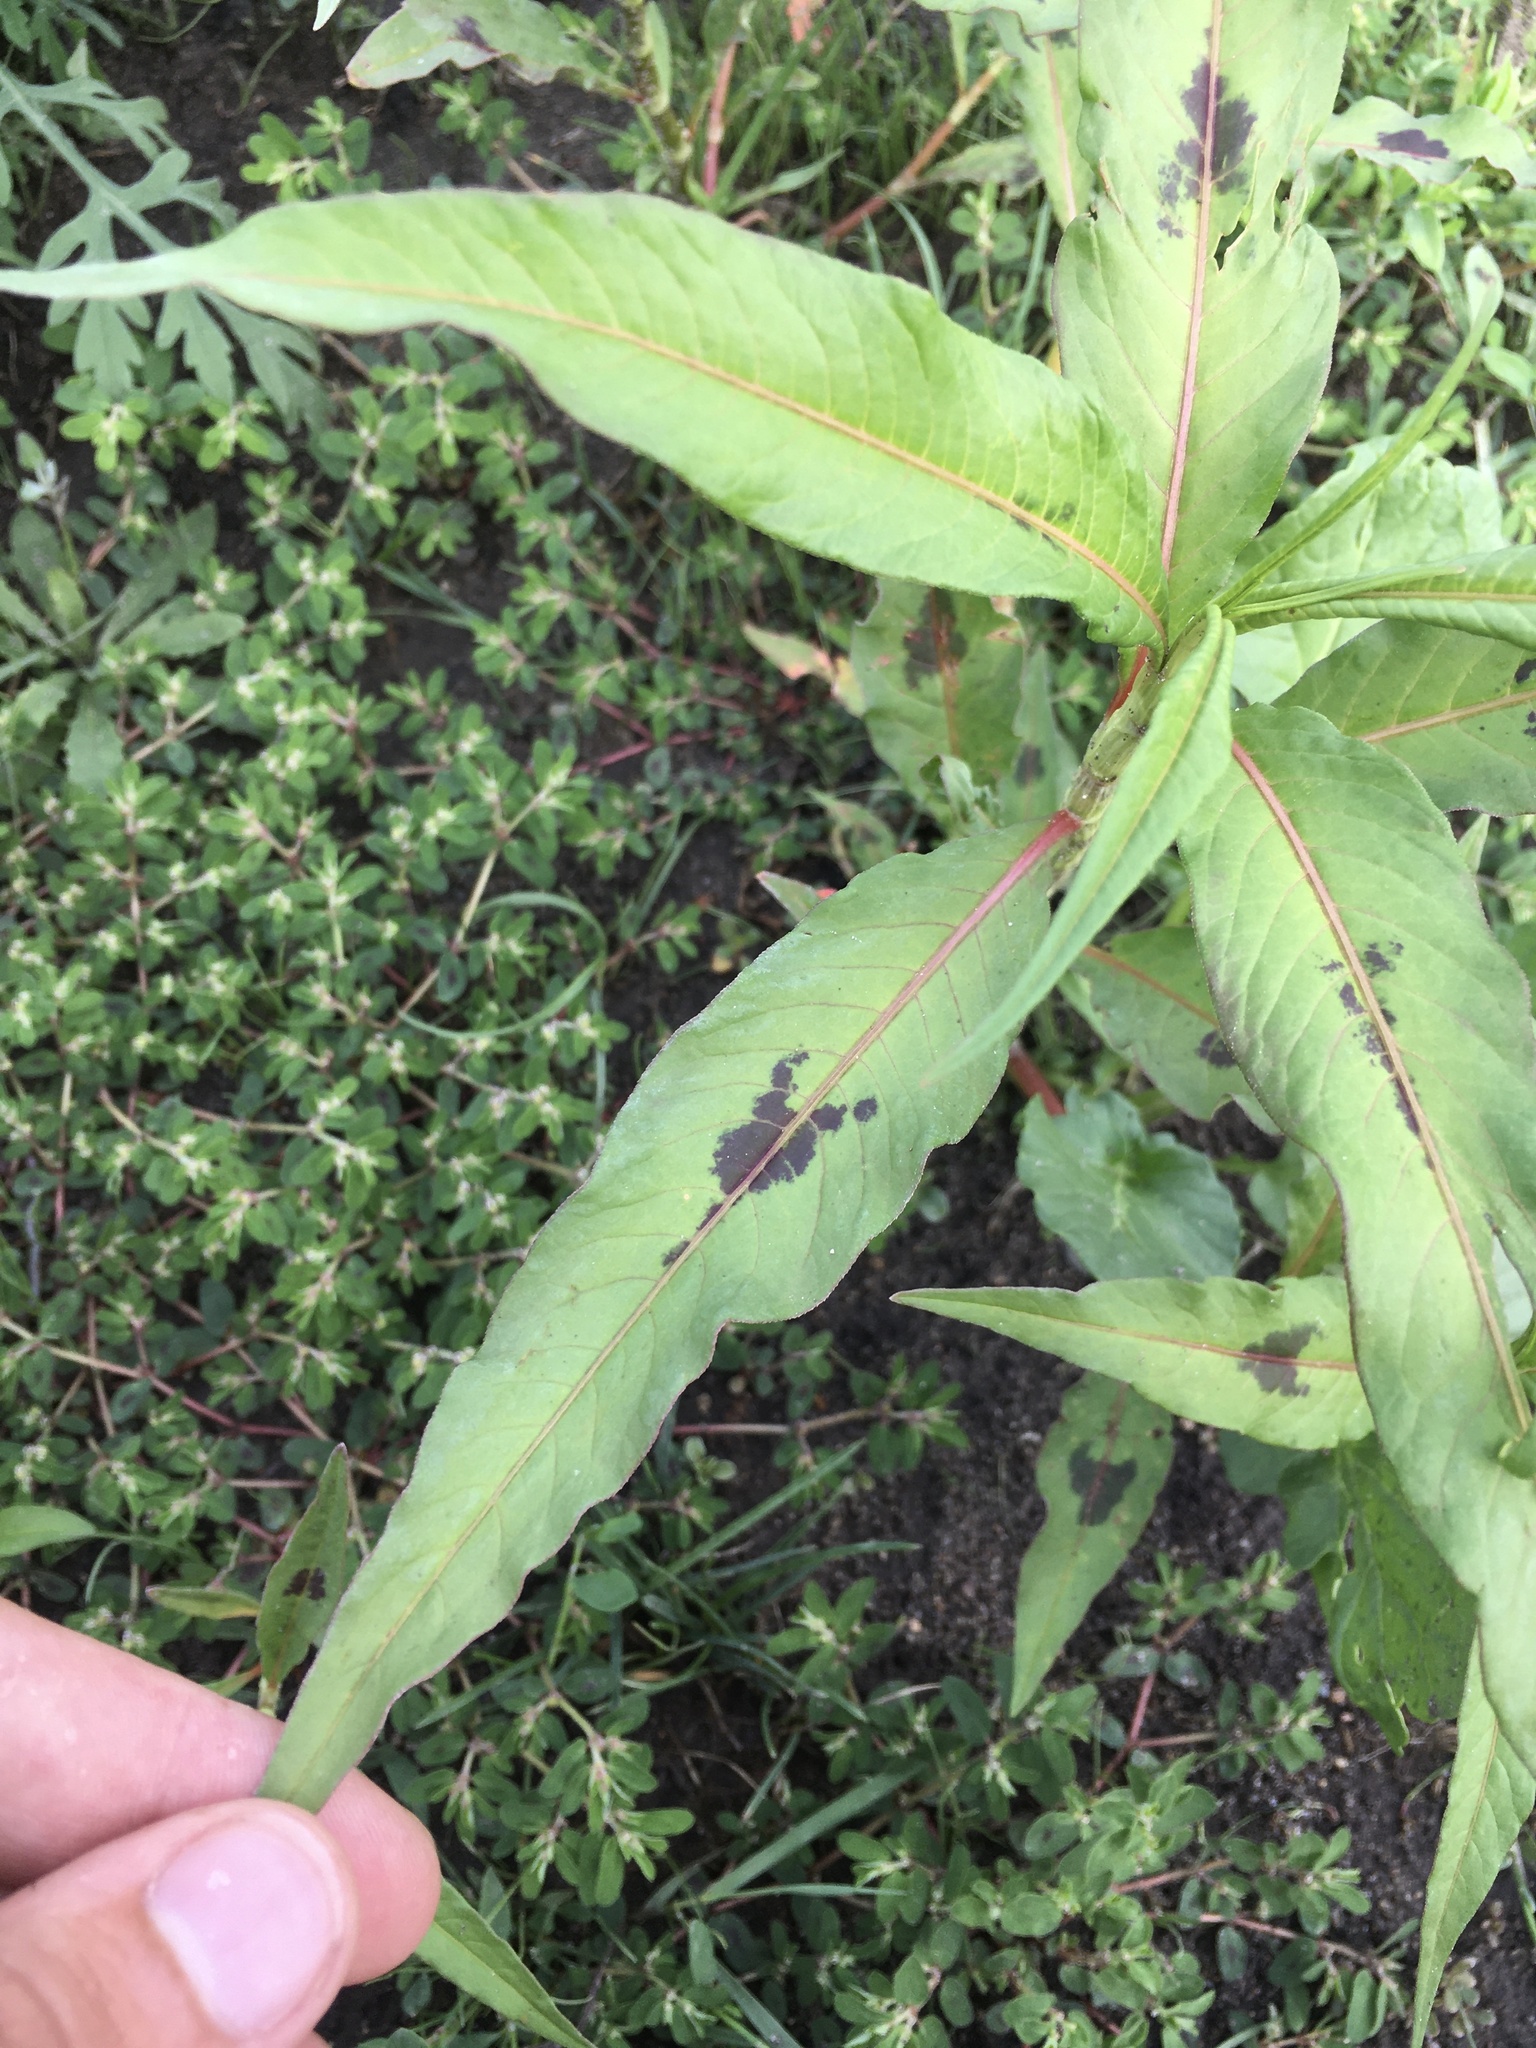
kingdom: Plantae
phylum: Tracheophyta
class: Magnoliopsida
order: Caryophyllales
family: Polygonaceae
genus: Persicaria
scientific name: Persicaria maculosa
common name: Redshank
